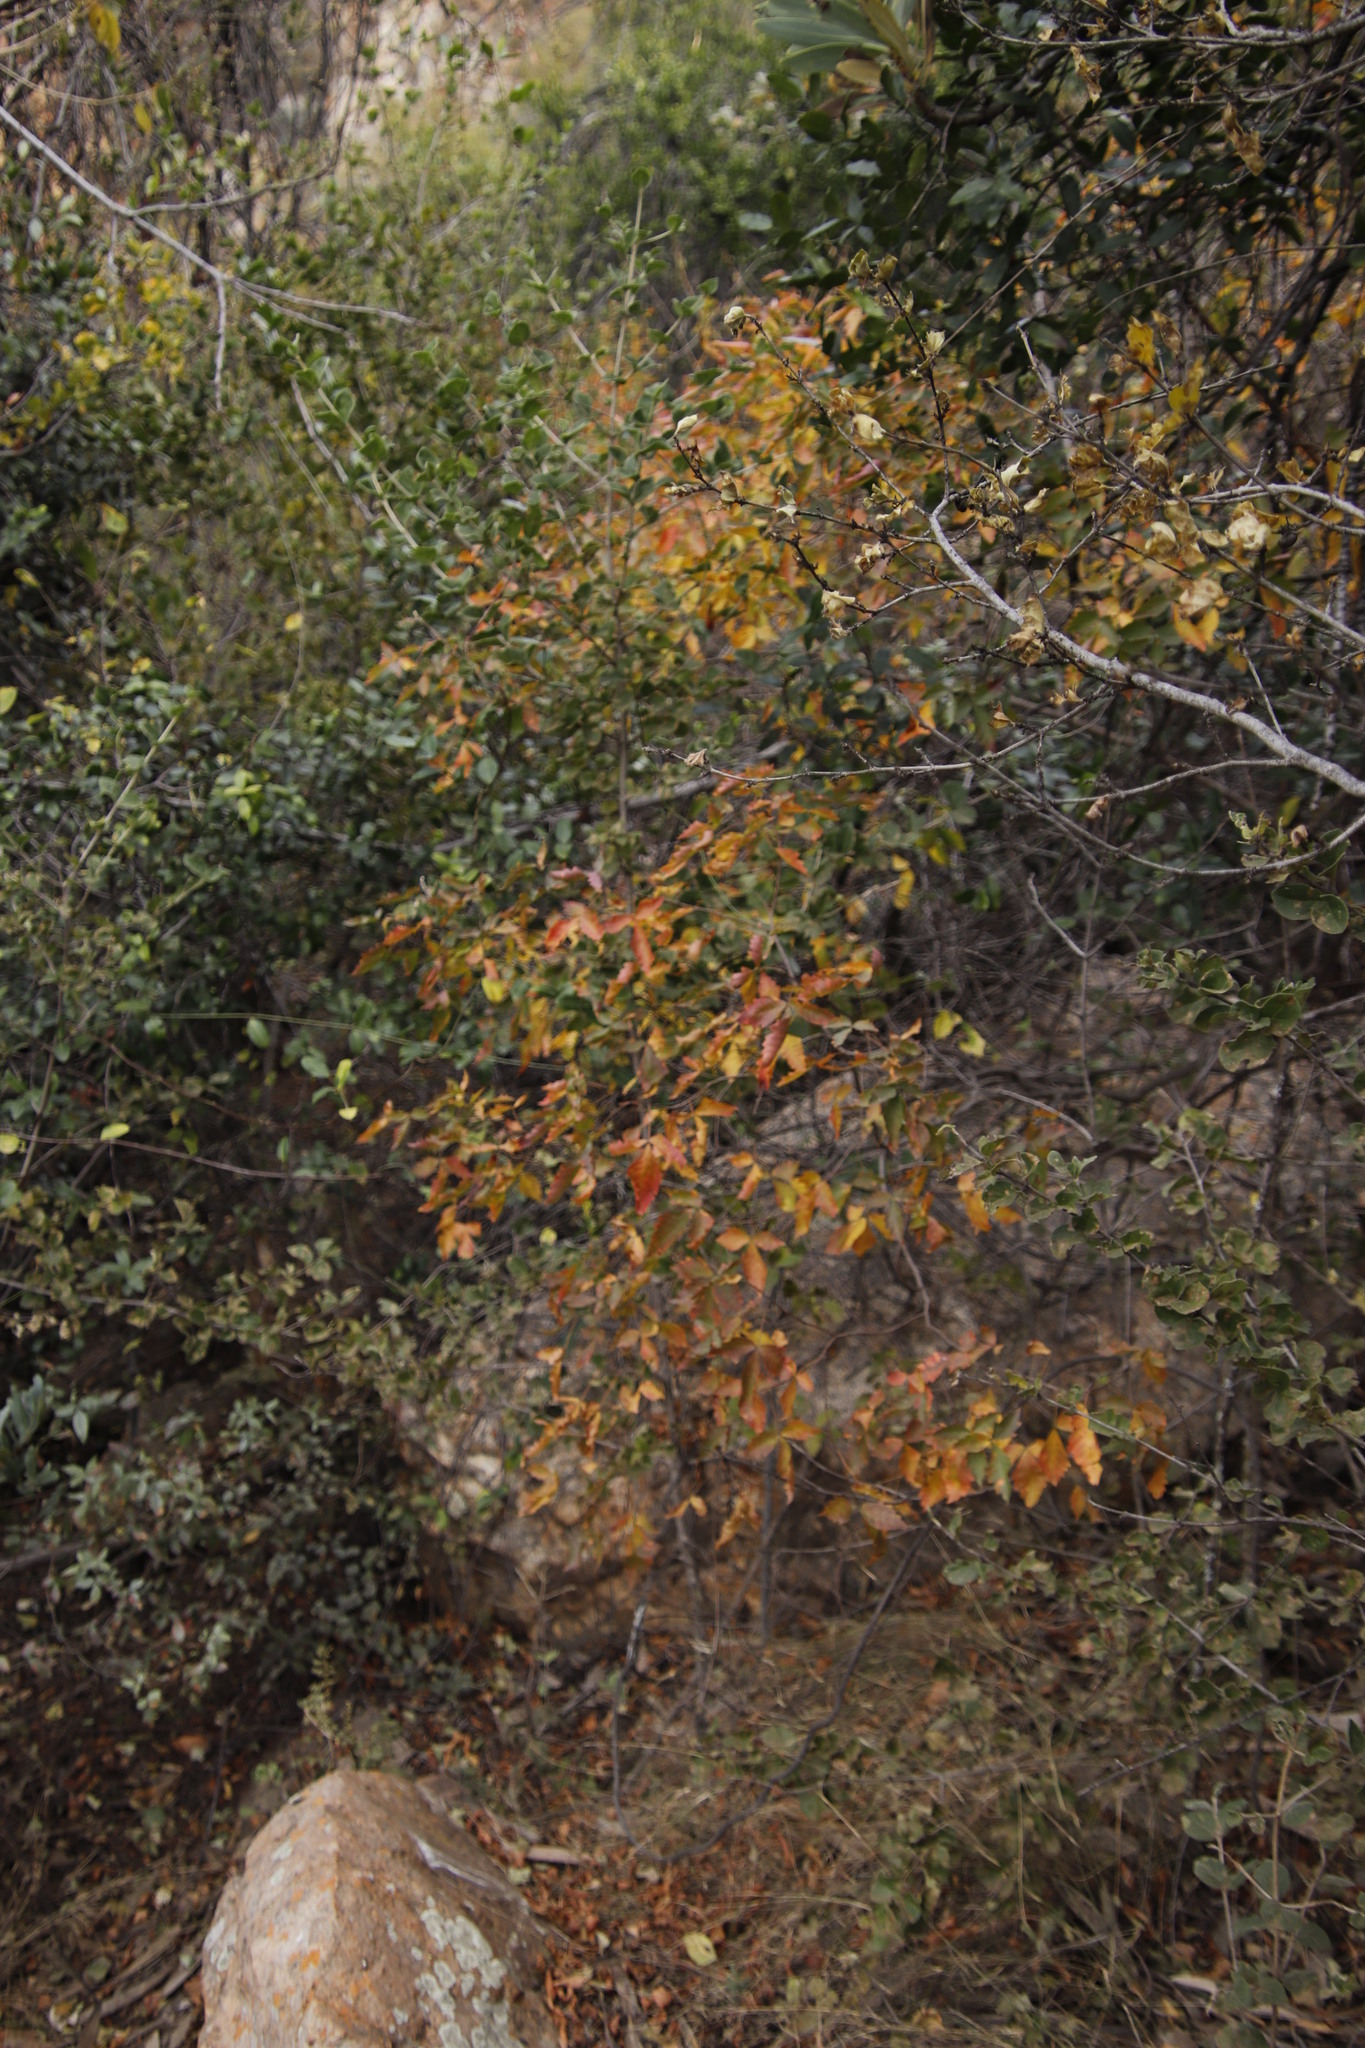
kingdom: Plantae
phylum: Tracheophyta
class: Magnoliopsida
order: Sapindales
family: Anacardiaceae
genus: Searsia
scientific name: Searsia dentata
